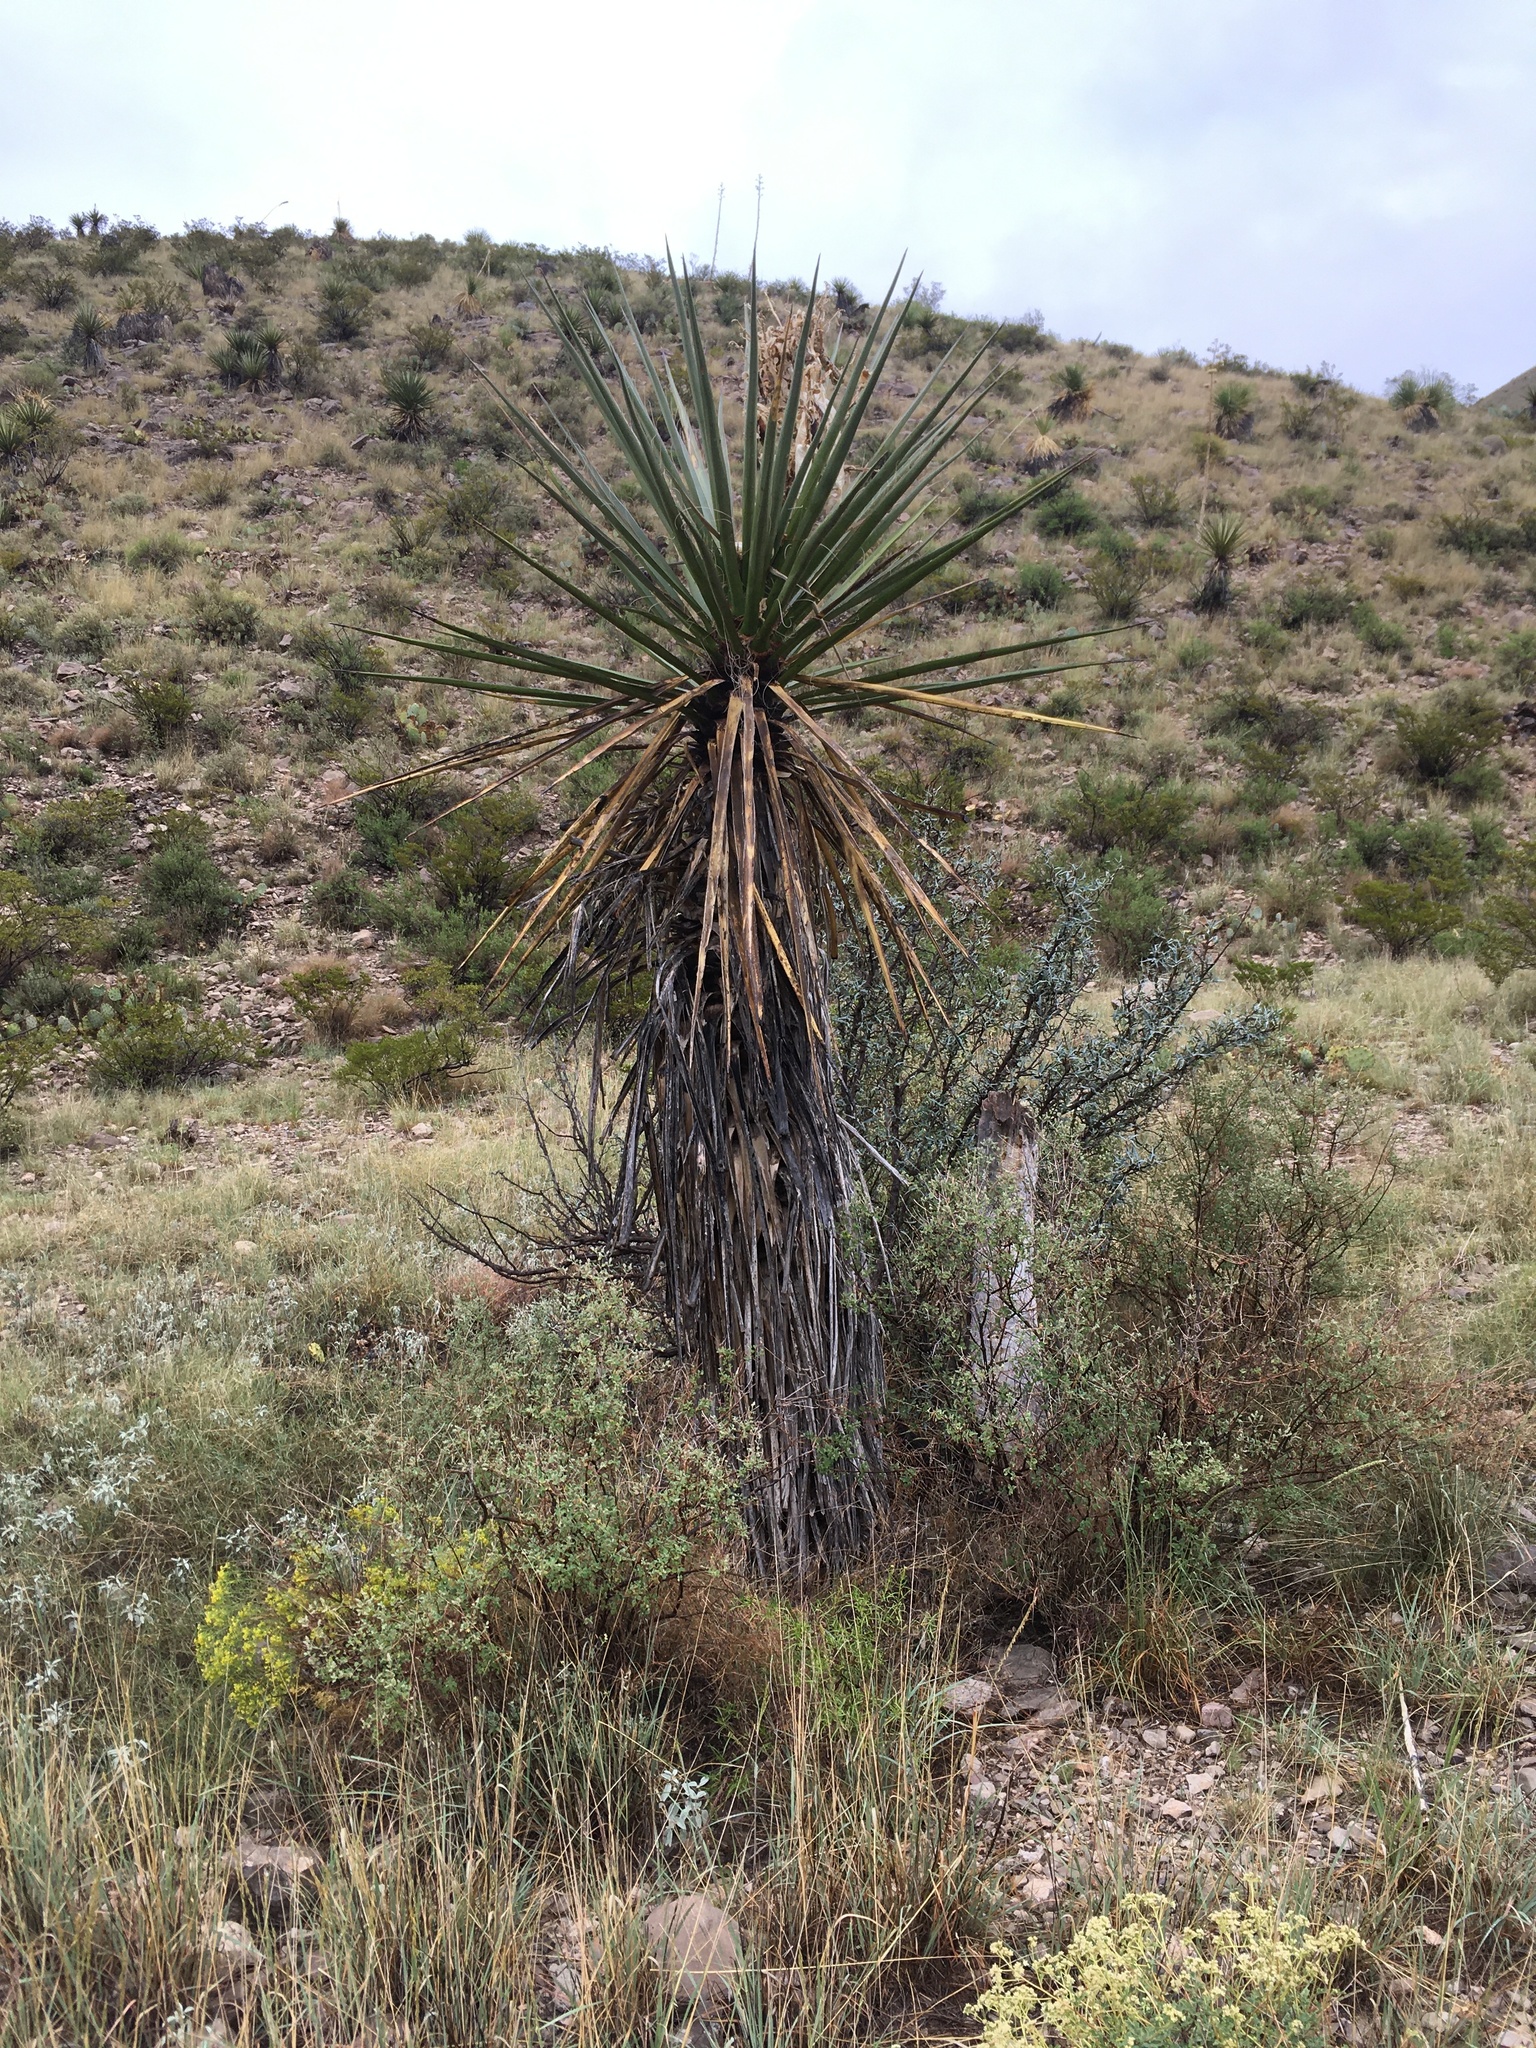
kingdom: Plantae
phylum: Tracheophyta
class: Liliopsida
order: Asparagales
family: Asparagaceae
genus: Yucca
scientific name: Yucca treculiana
